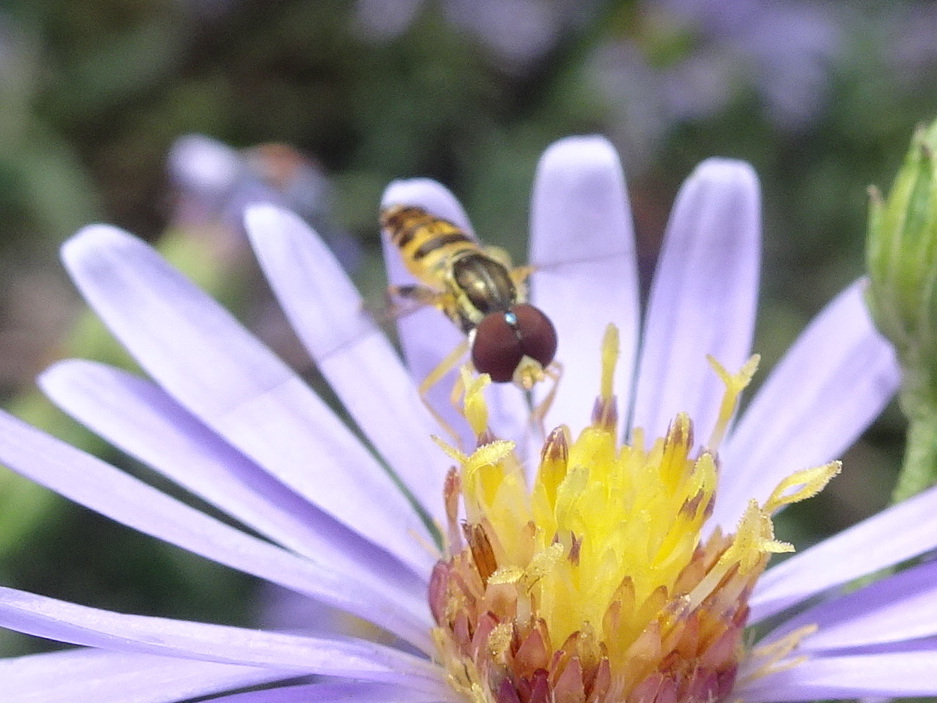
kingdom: Animalia
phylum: Arthropoda
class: Insecta
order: Diptera
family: Syrphidae
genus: Toxomerus
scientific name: Toxomerus geminatus
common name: Eastern calligrapher
